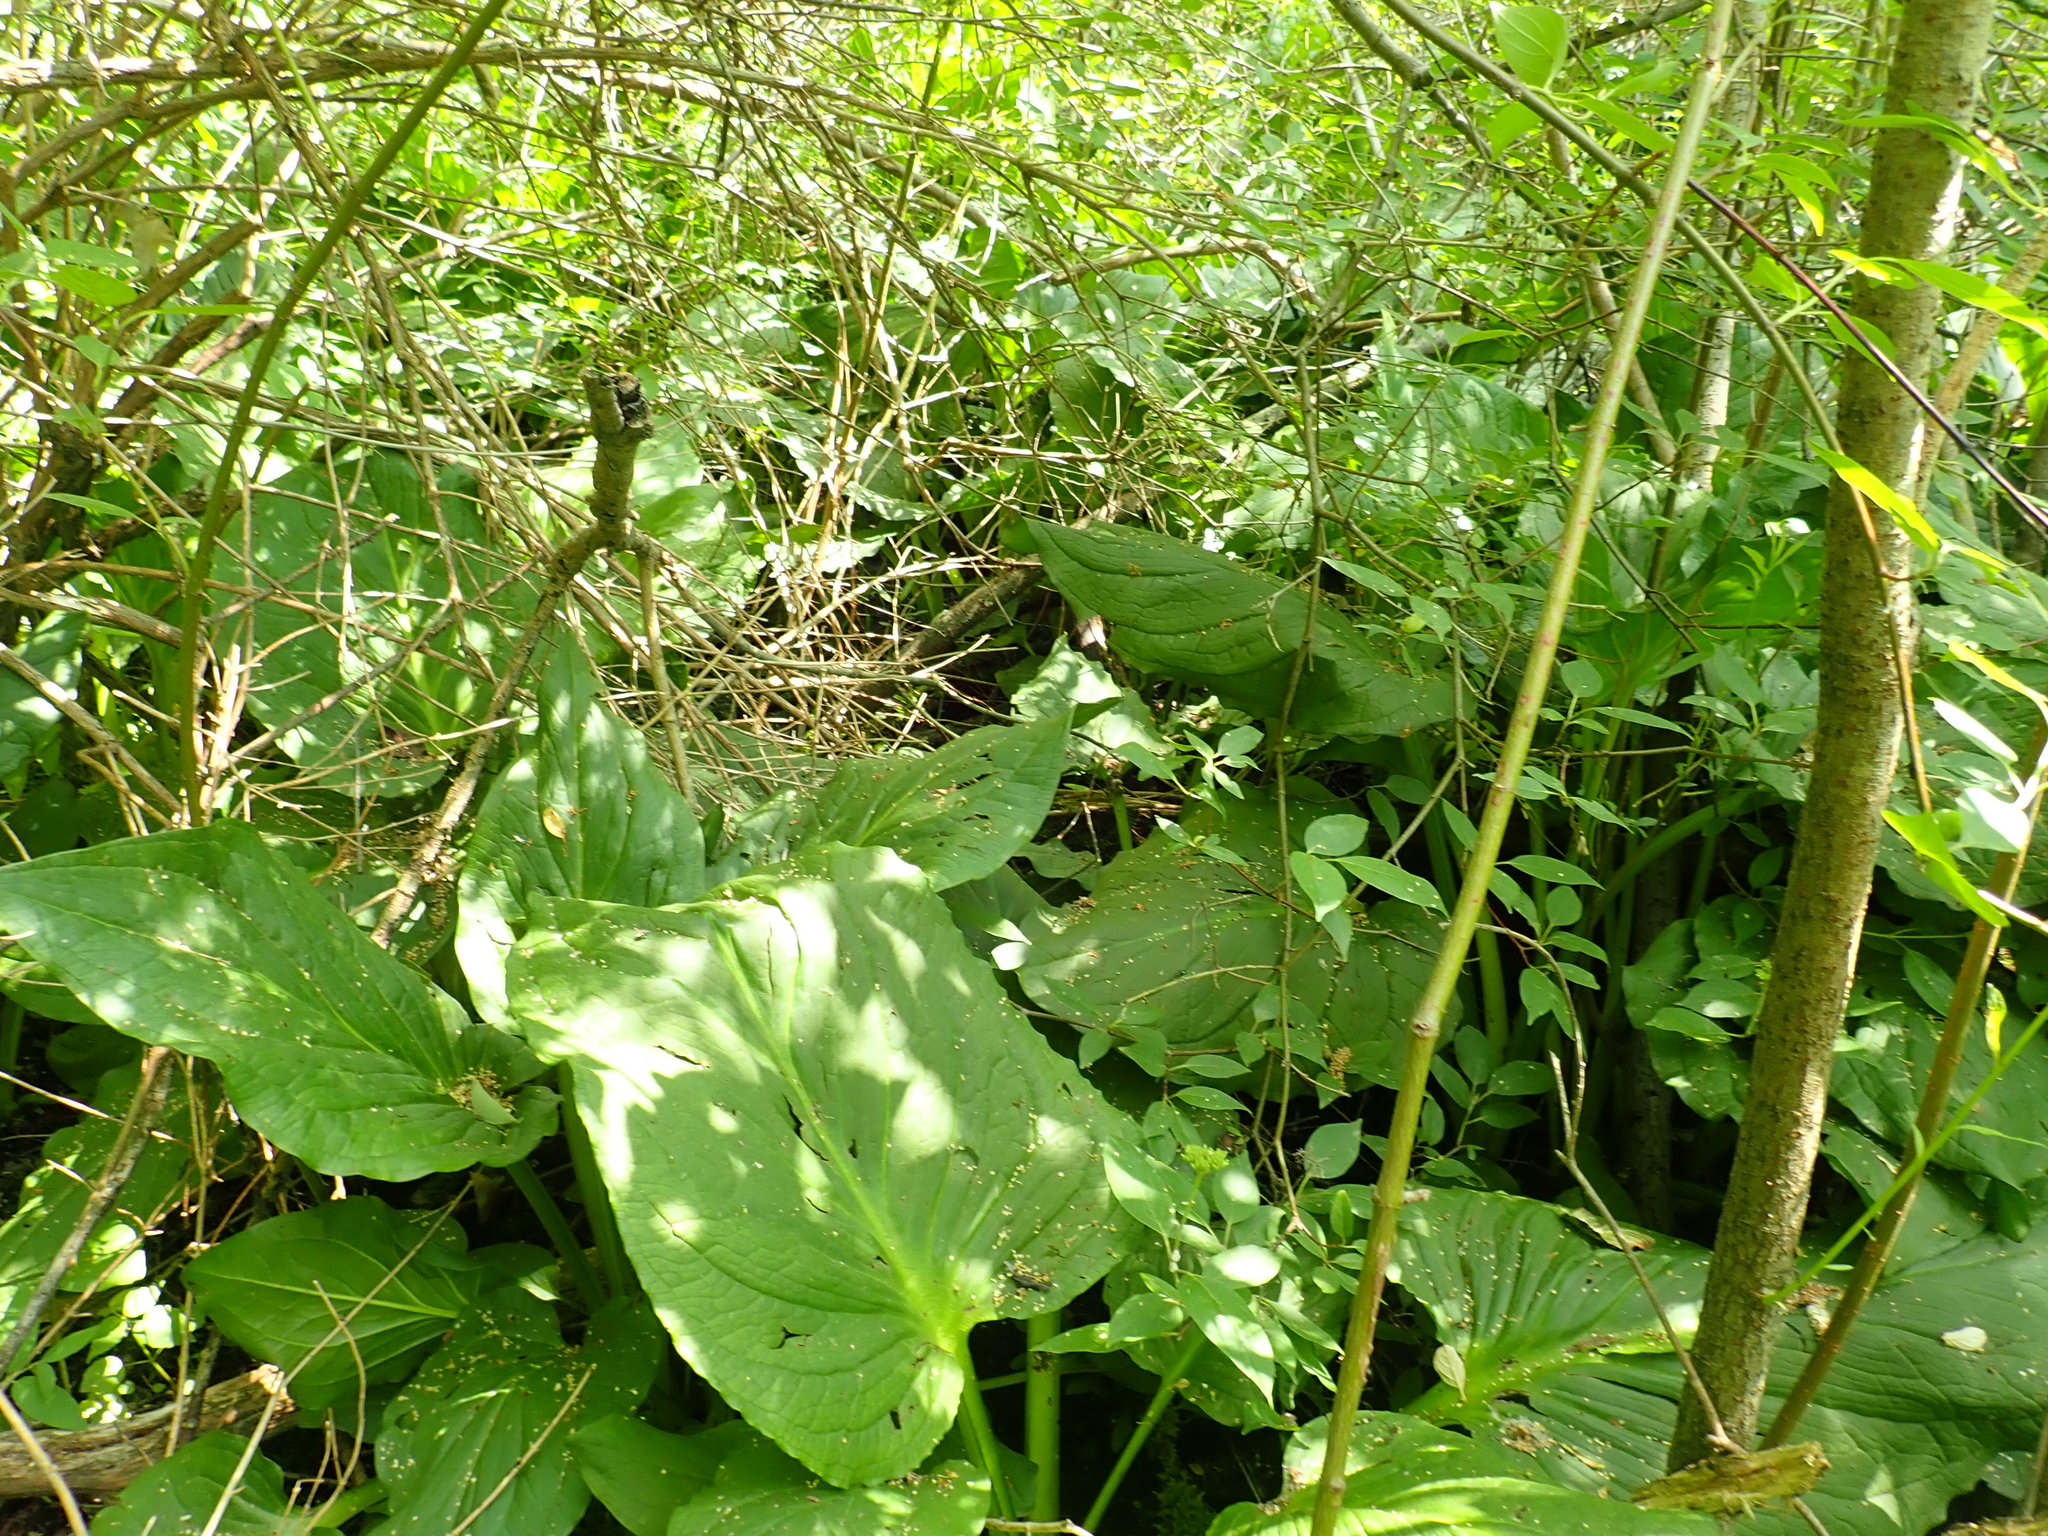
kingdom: Plantae
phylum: Tracheophyta
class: Liliopsida
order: Alismatales
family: Araceae
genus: Symplocarpus
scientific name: Symplocarpus foetidus
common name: Eastern skunk cabbage
